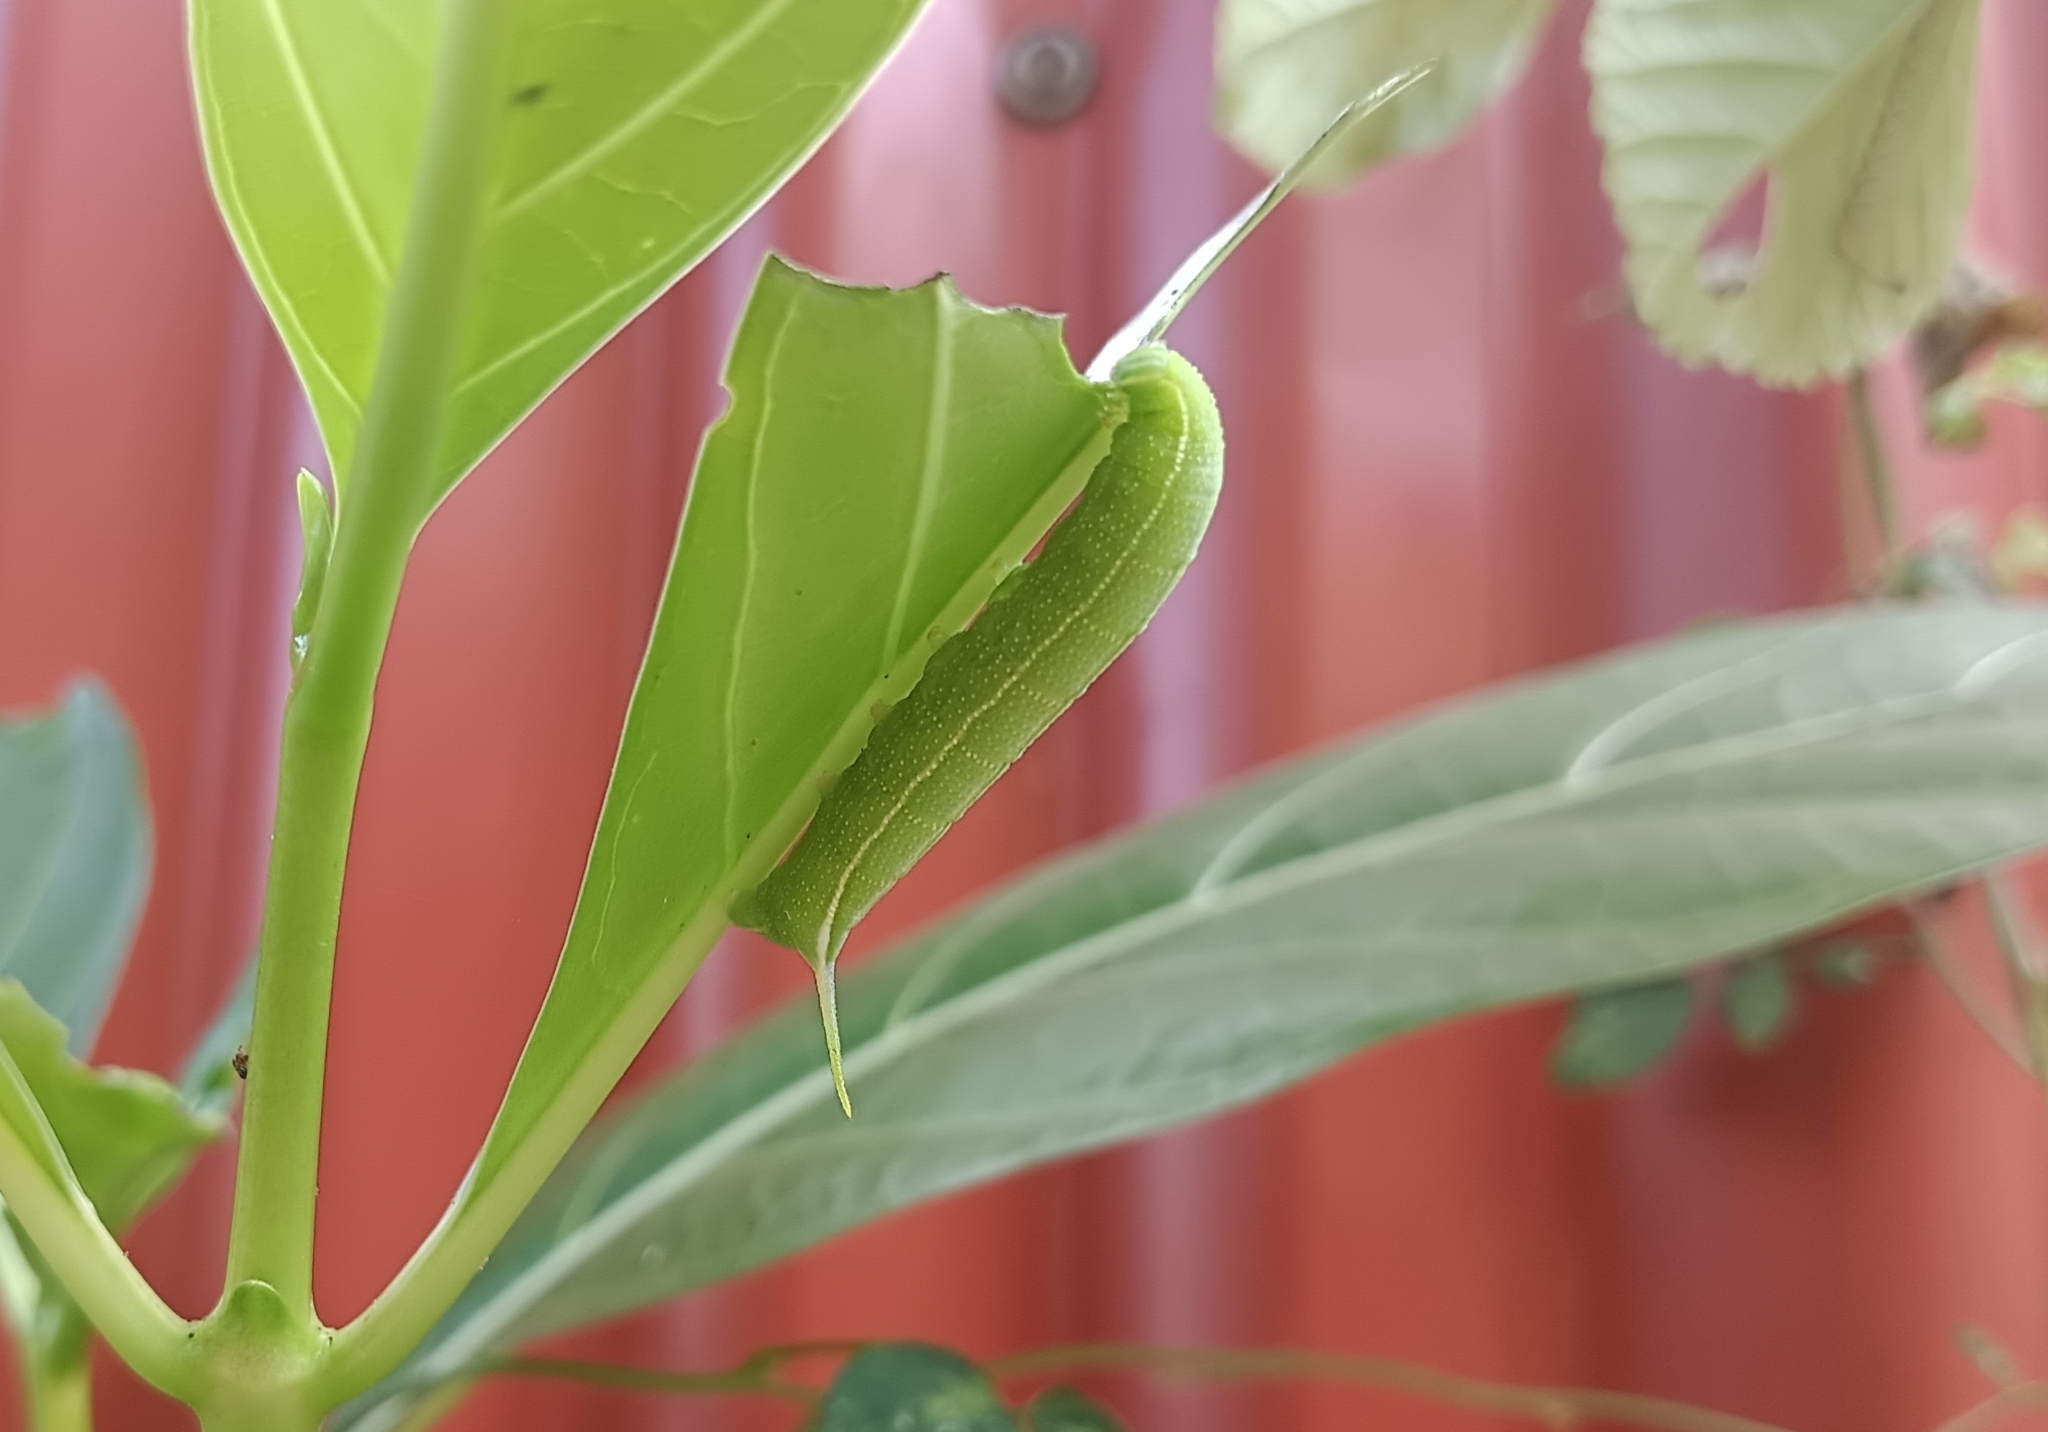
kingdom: Animalia
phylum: Arthropoda
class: Insecta
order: Lepidoptera
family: Sphingidae
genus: Macroglossum
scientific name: Macroglossum sitiene
